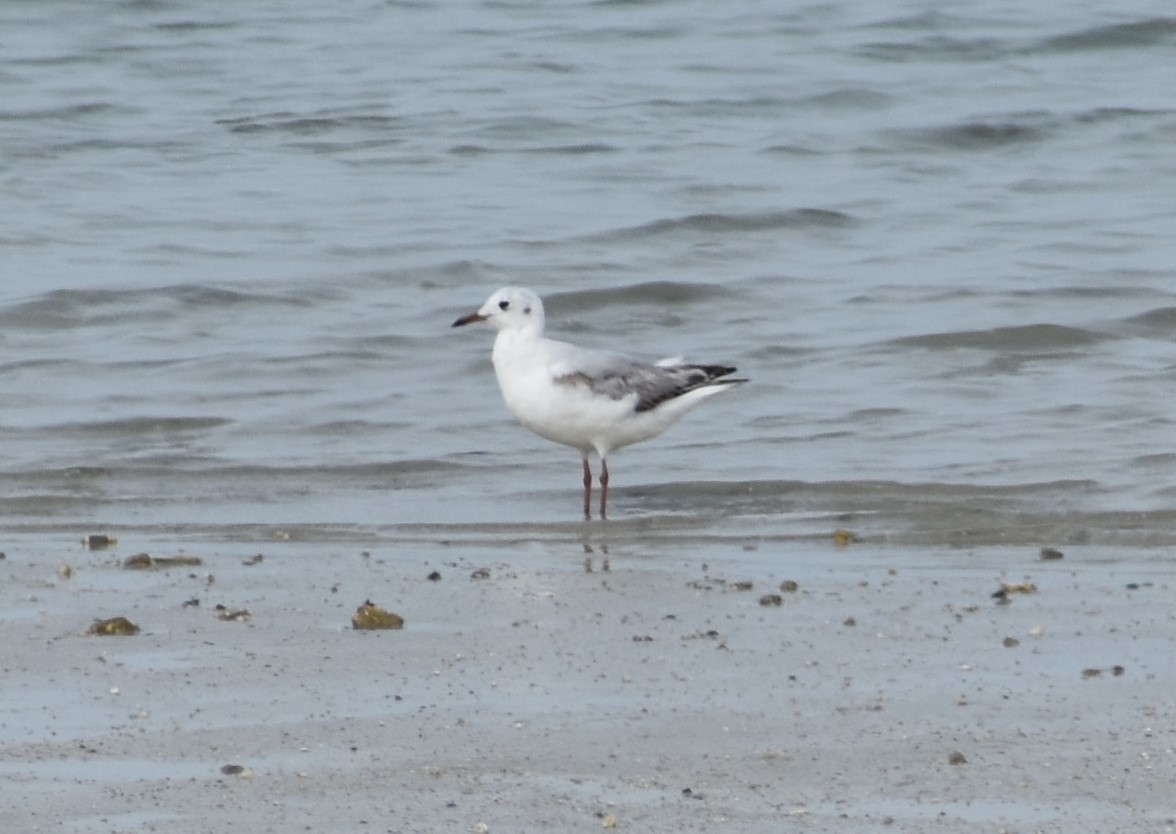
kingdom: Animalia
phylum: Chordata
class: Aves
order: Charadriiformes
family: Laridae
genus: Chroicocephalus
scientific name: Chroicocephalus ridibundus
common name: Black-headed gull
